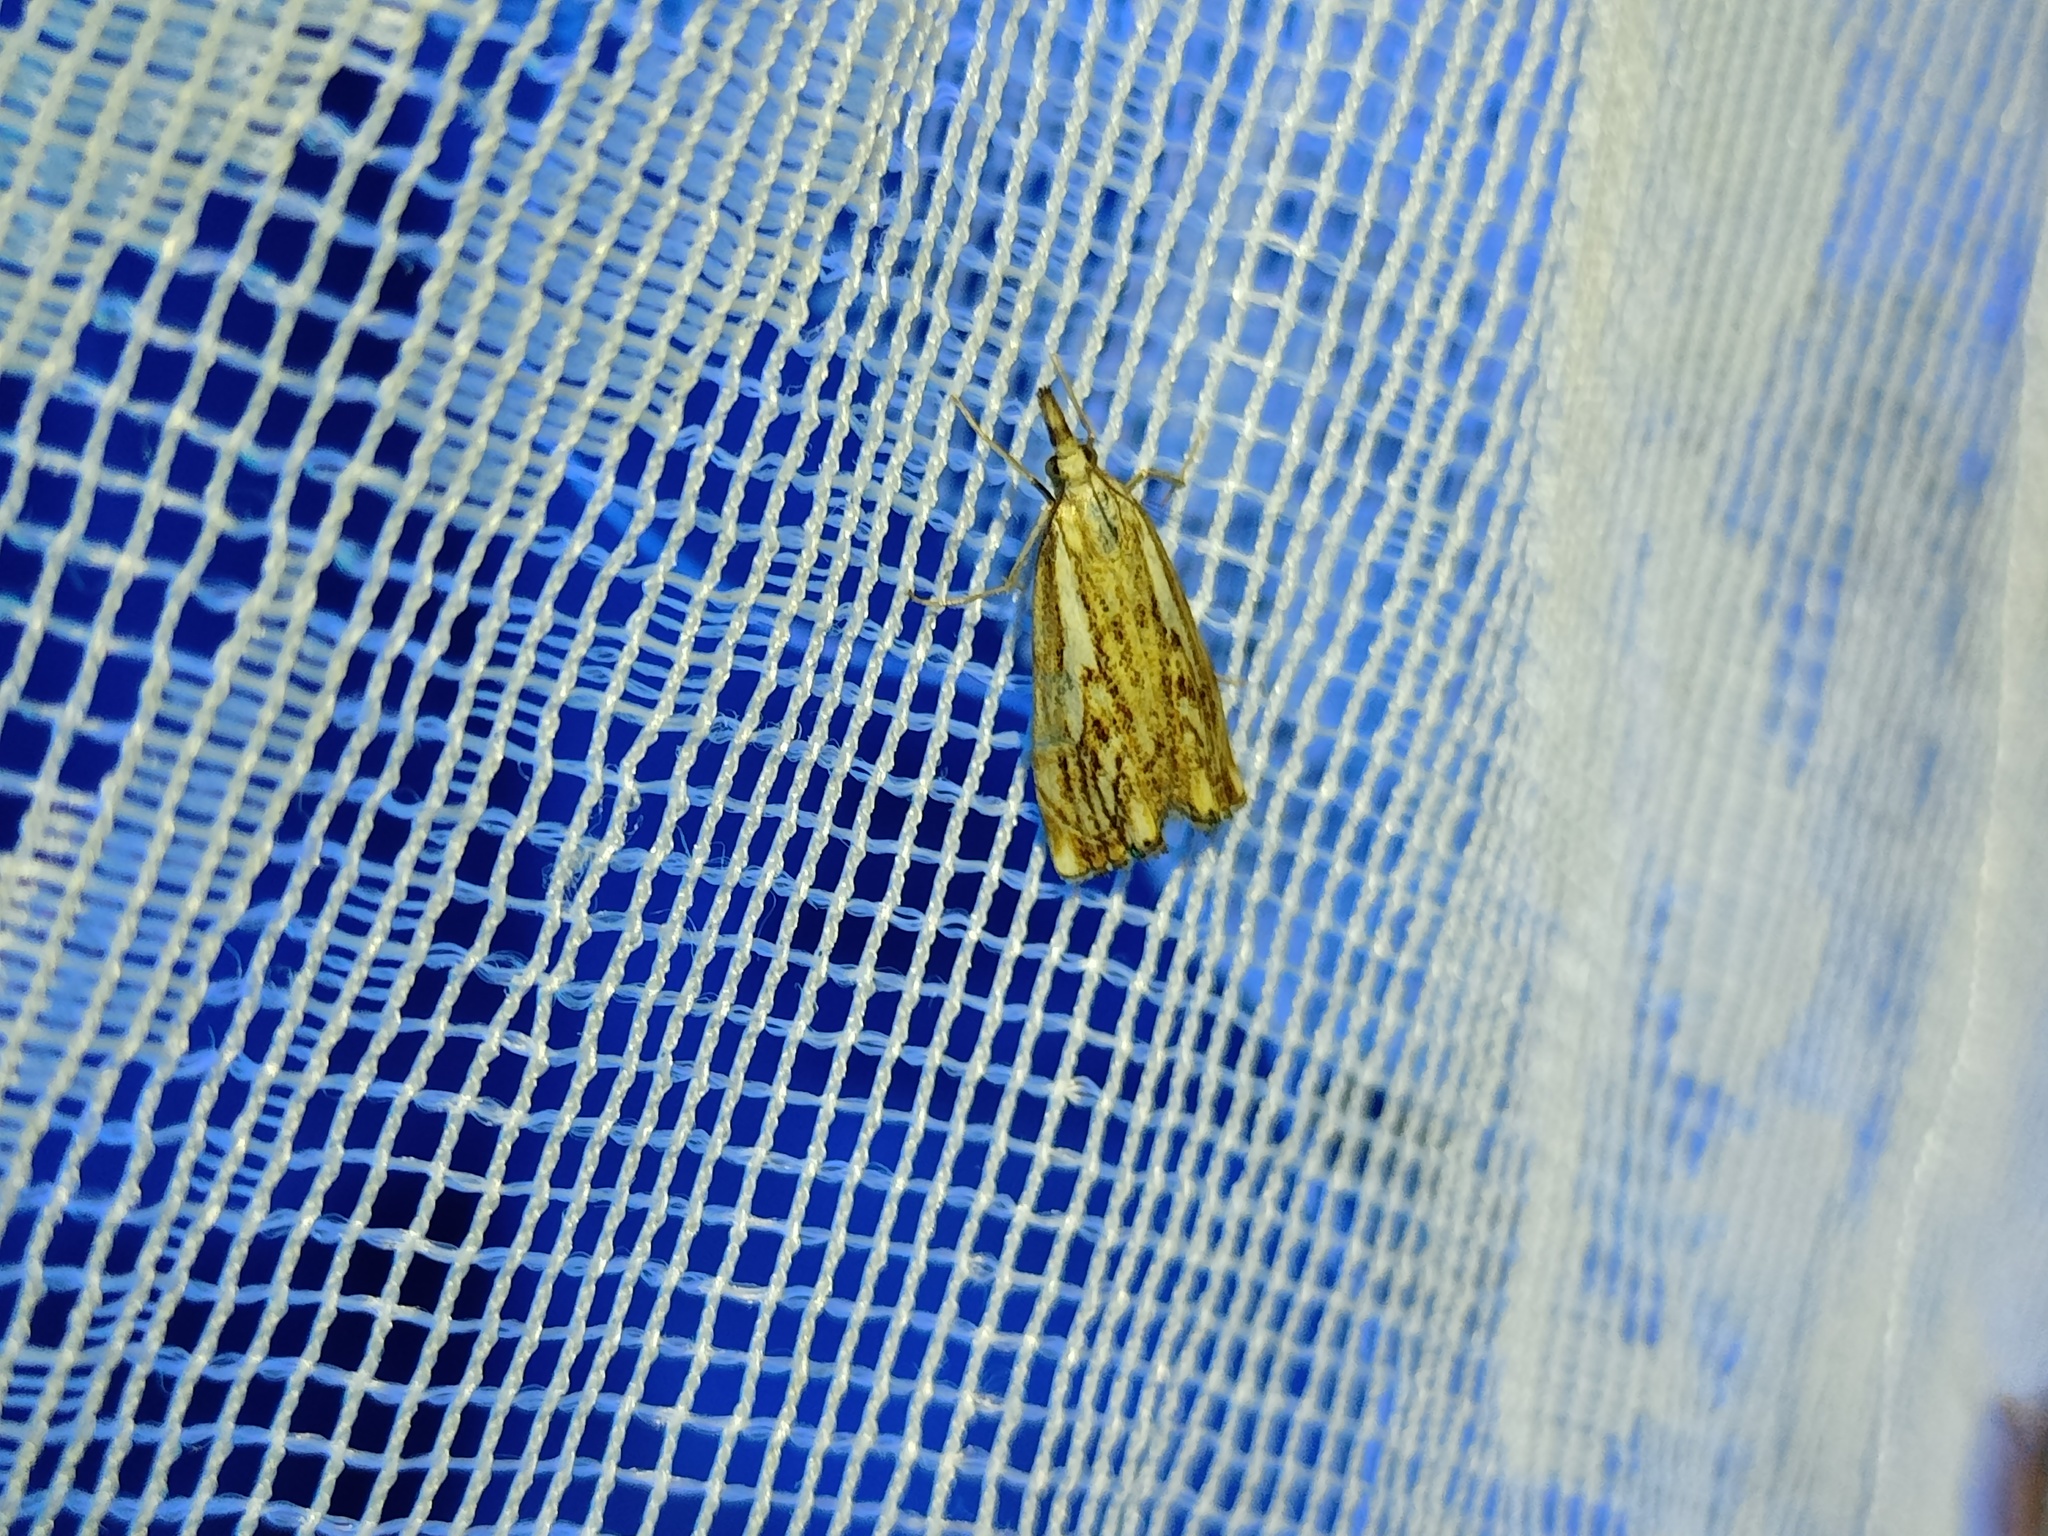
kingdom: Animalia
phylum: Arthropoda
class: Insecta
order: Lepidoptera
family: Crambidae
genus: Catoptria
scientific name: Catoptria falsella
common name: Chequered grass-veneer
